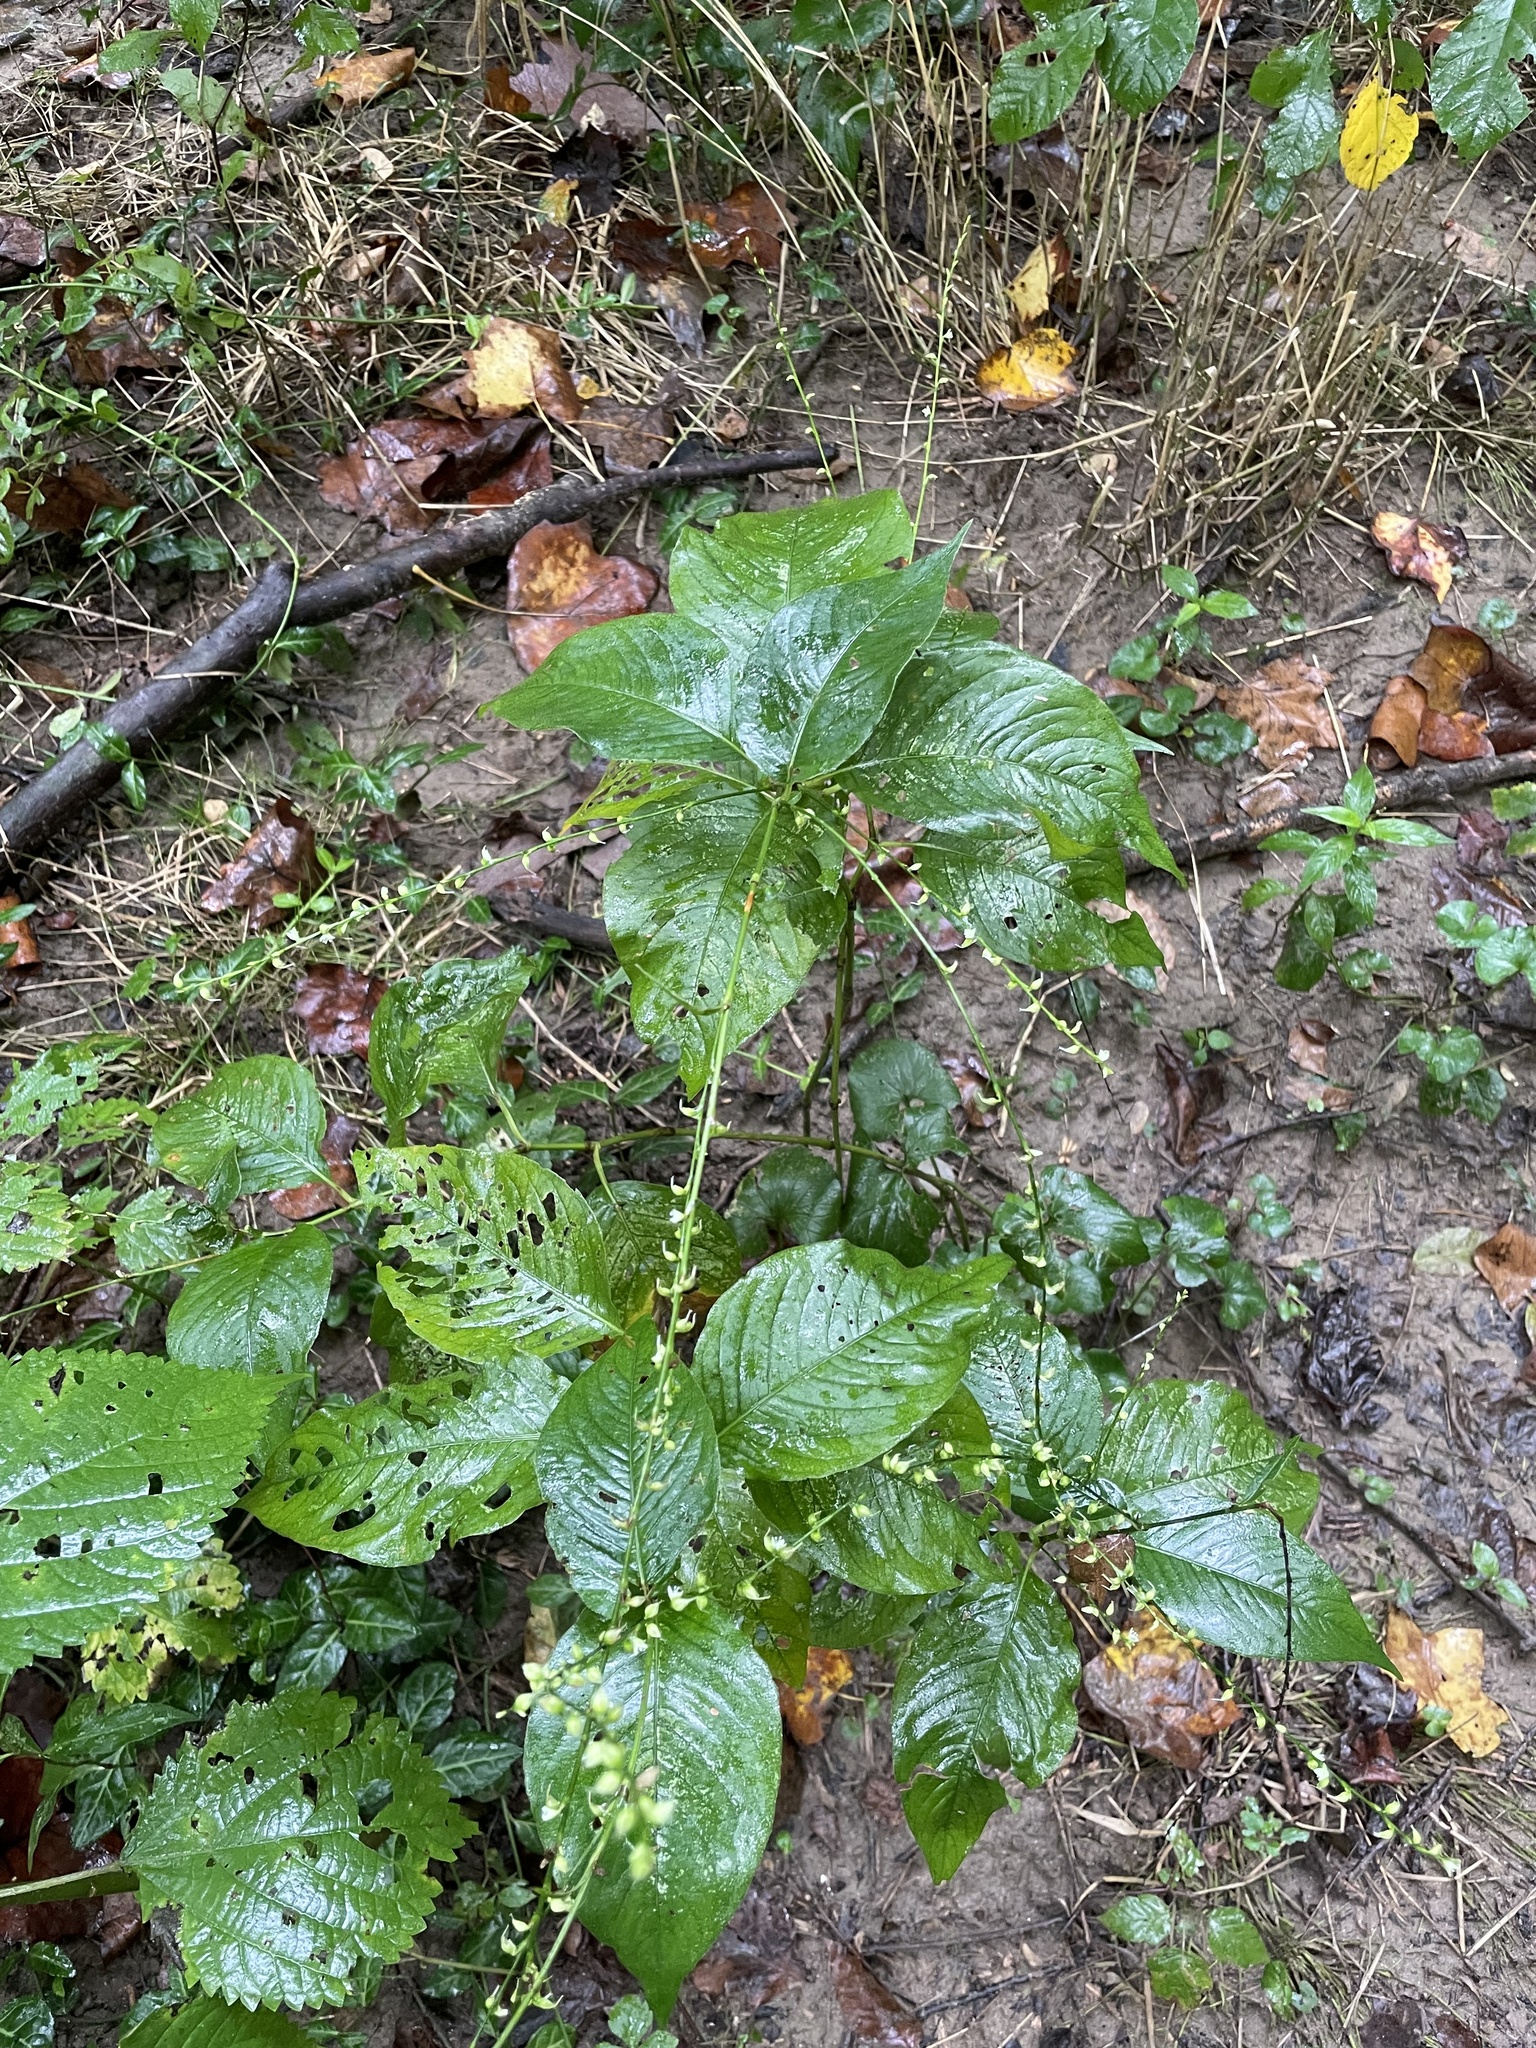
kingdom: Plantae
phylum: Tracheophyta
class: Magnoliopsida
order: Caryophyllales
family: Polygonaceae
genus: Persicaria
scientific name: Persicaria virginiana
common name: Jumpseed
